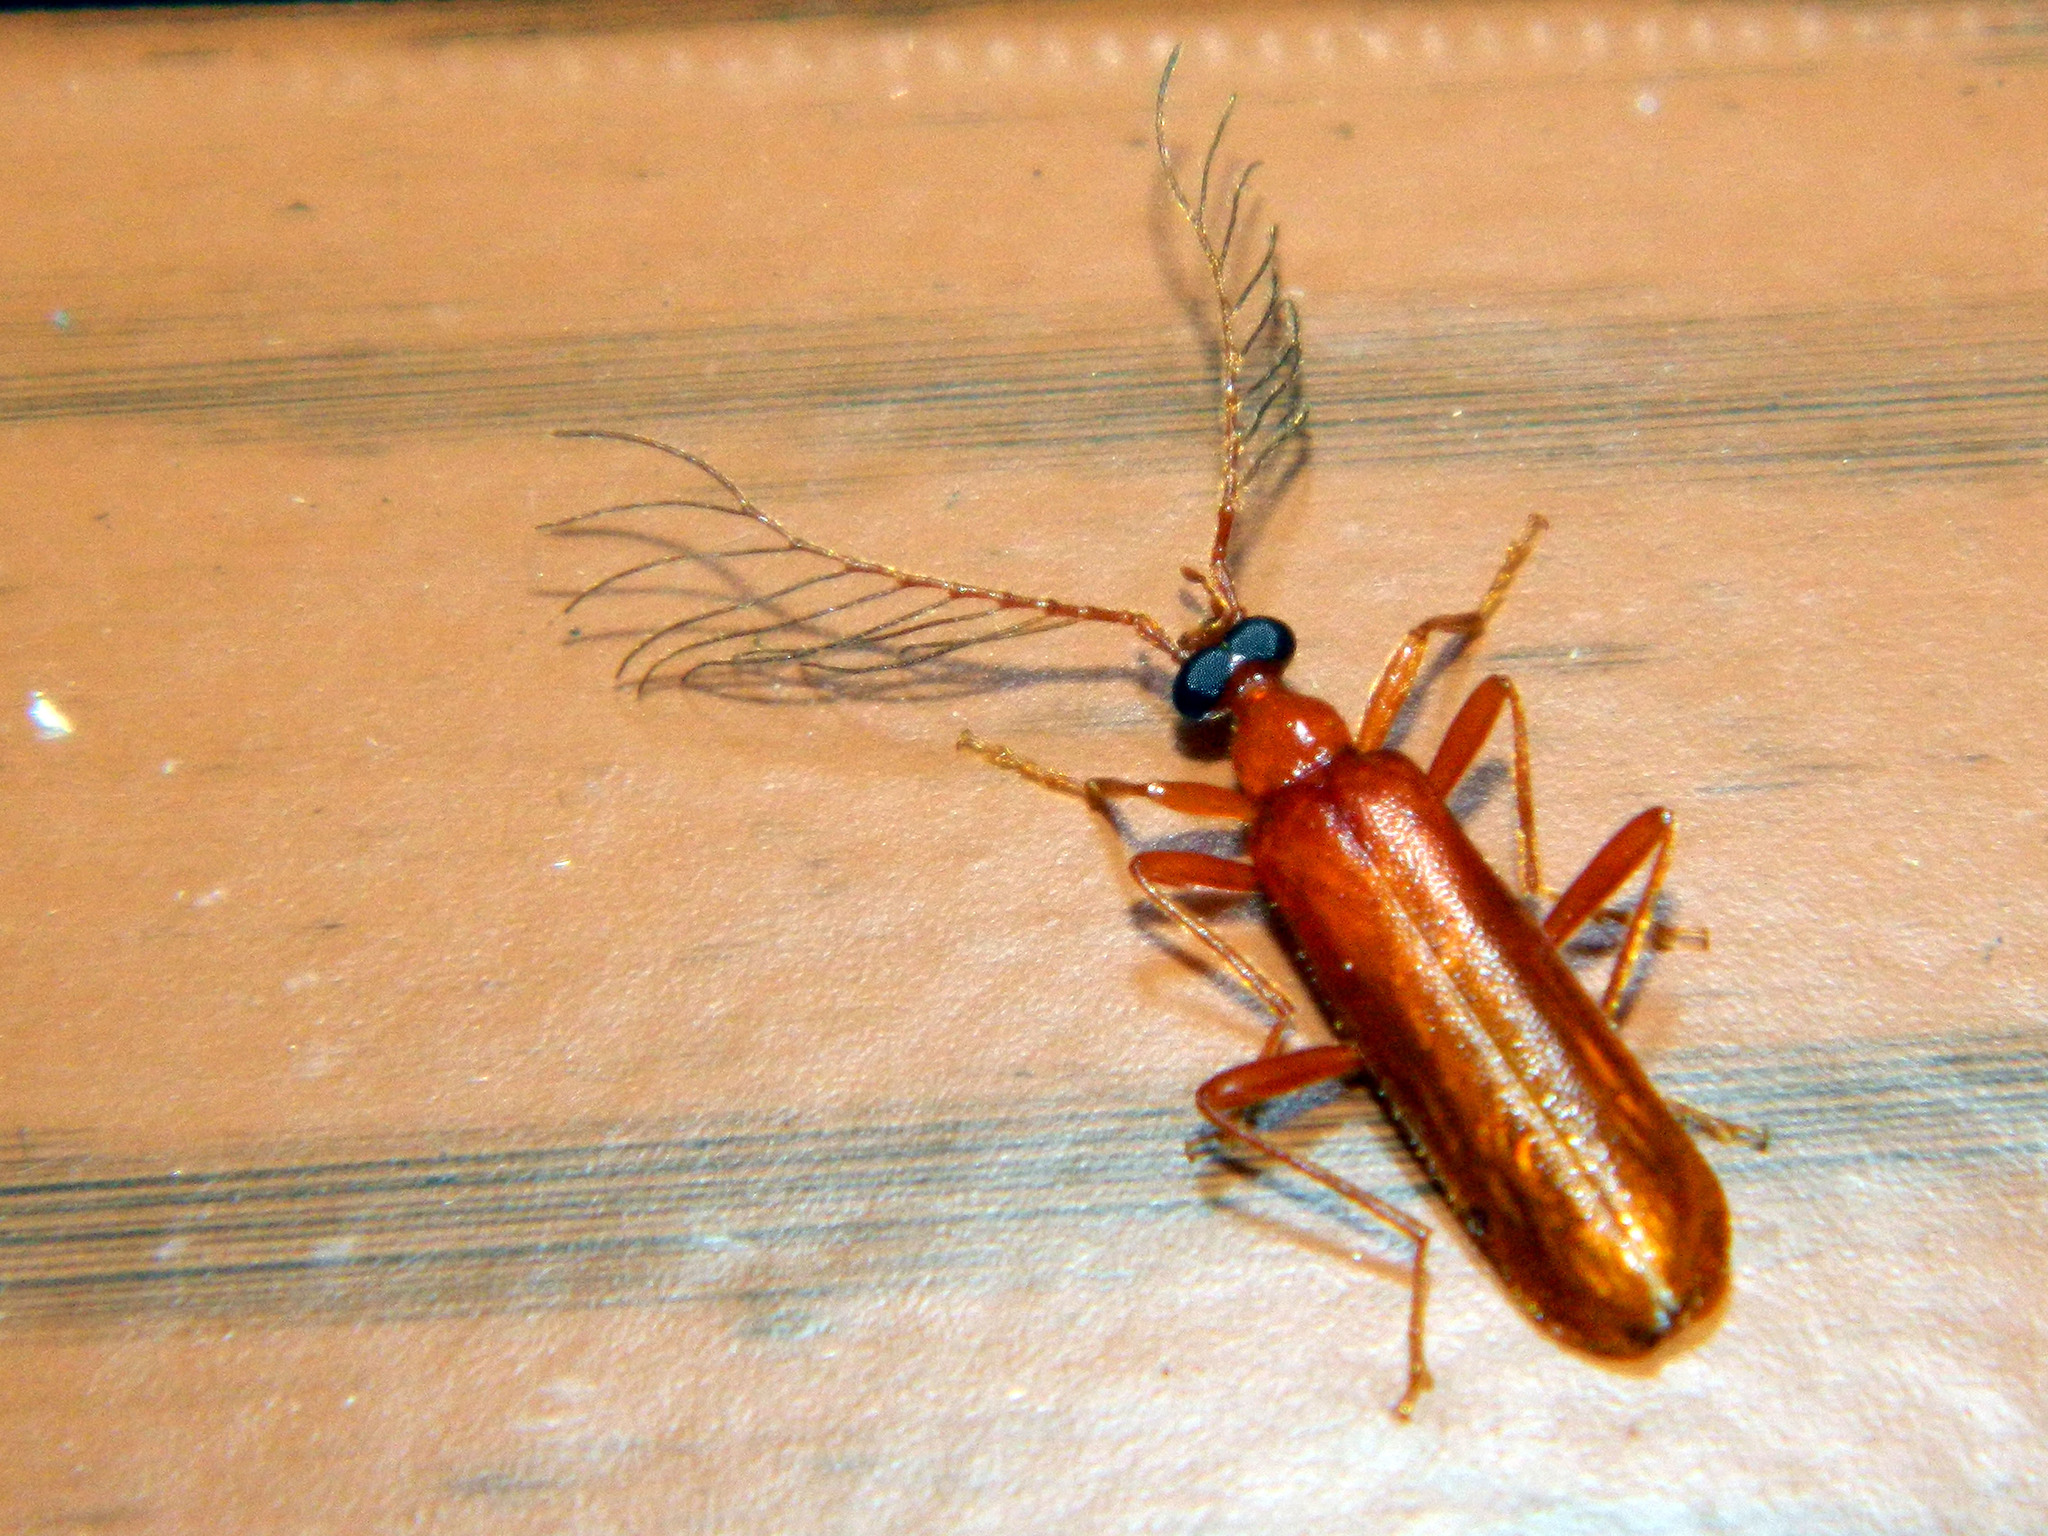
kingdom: Animalia
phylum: Arthropoda
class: Insecta
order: Coleoptera
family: Pyrochroidae
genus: Dendroides
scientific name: Dendroides concolor
